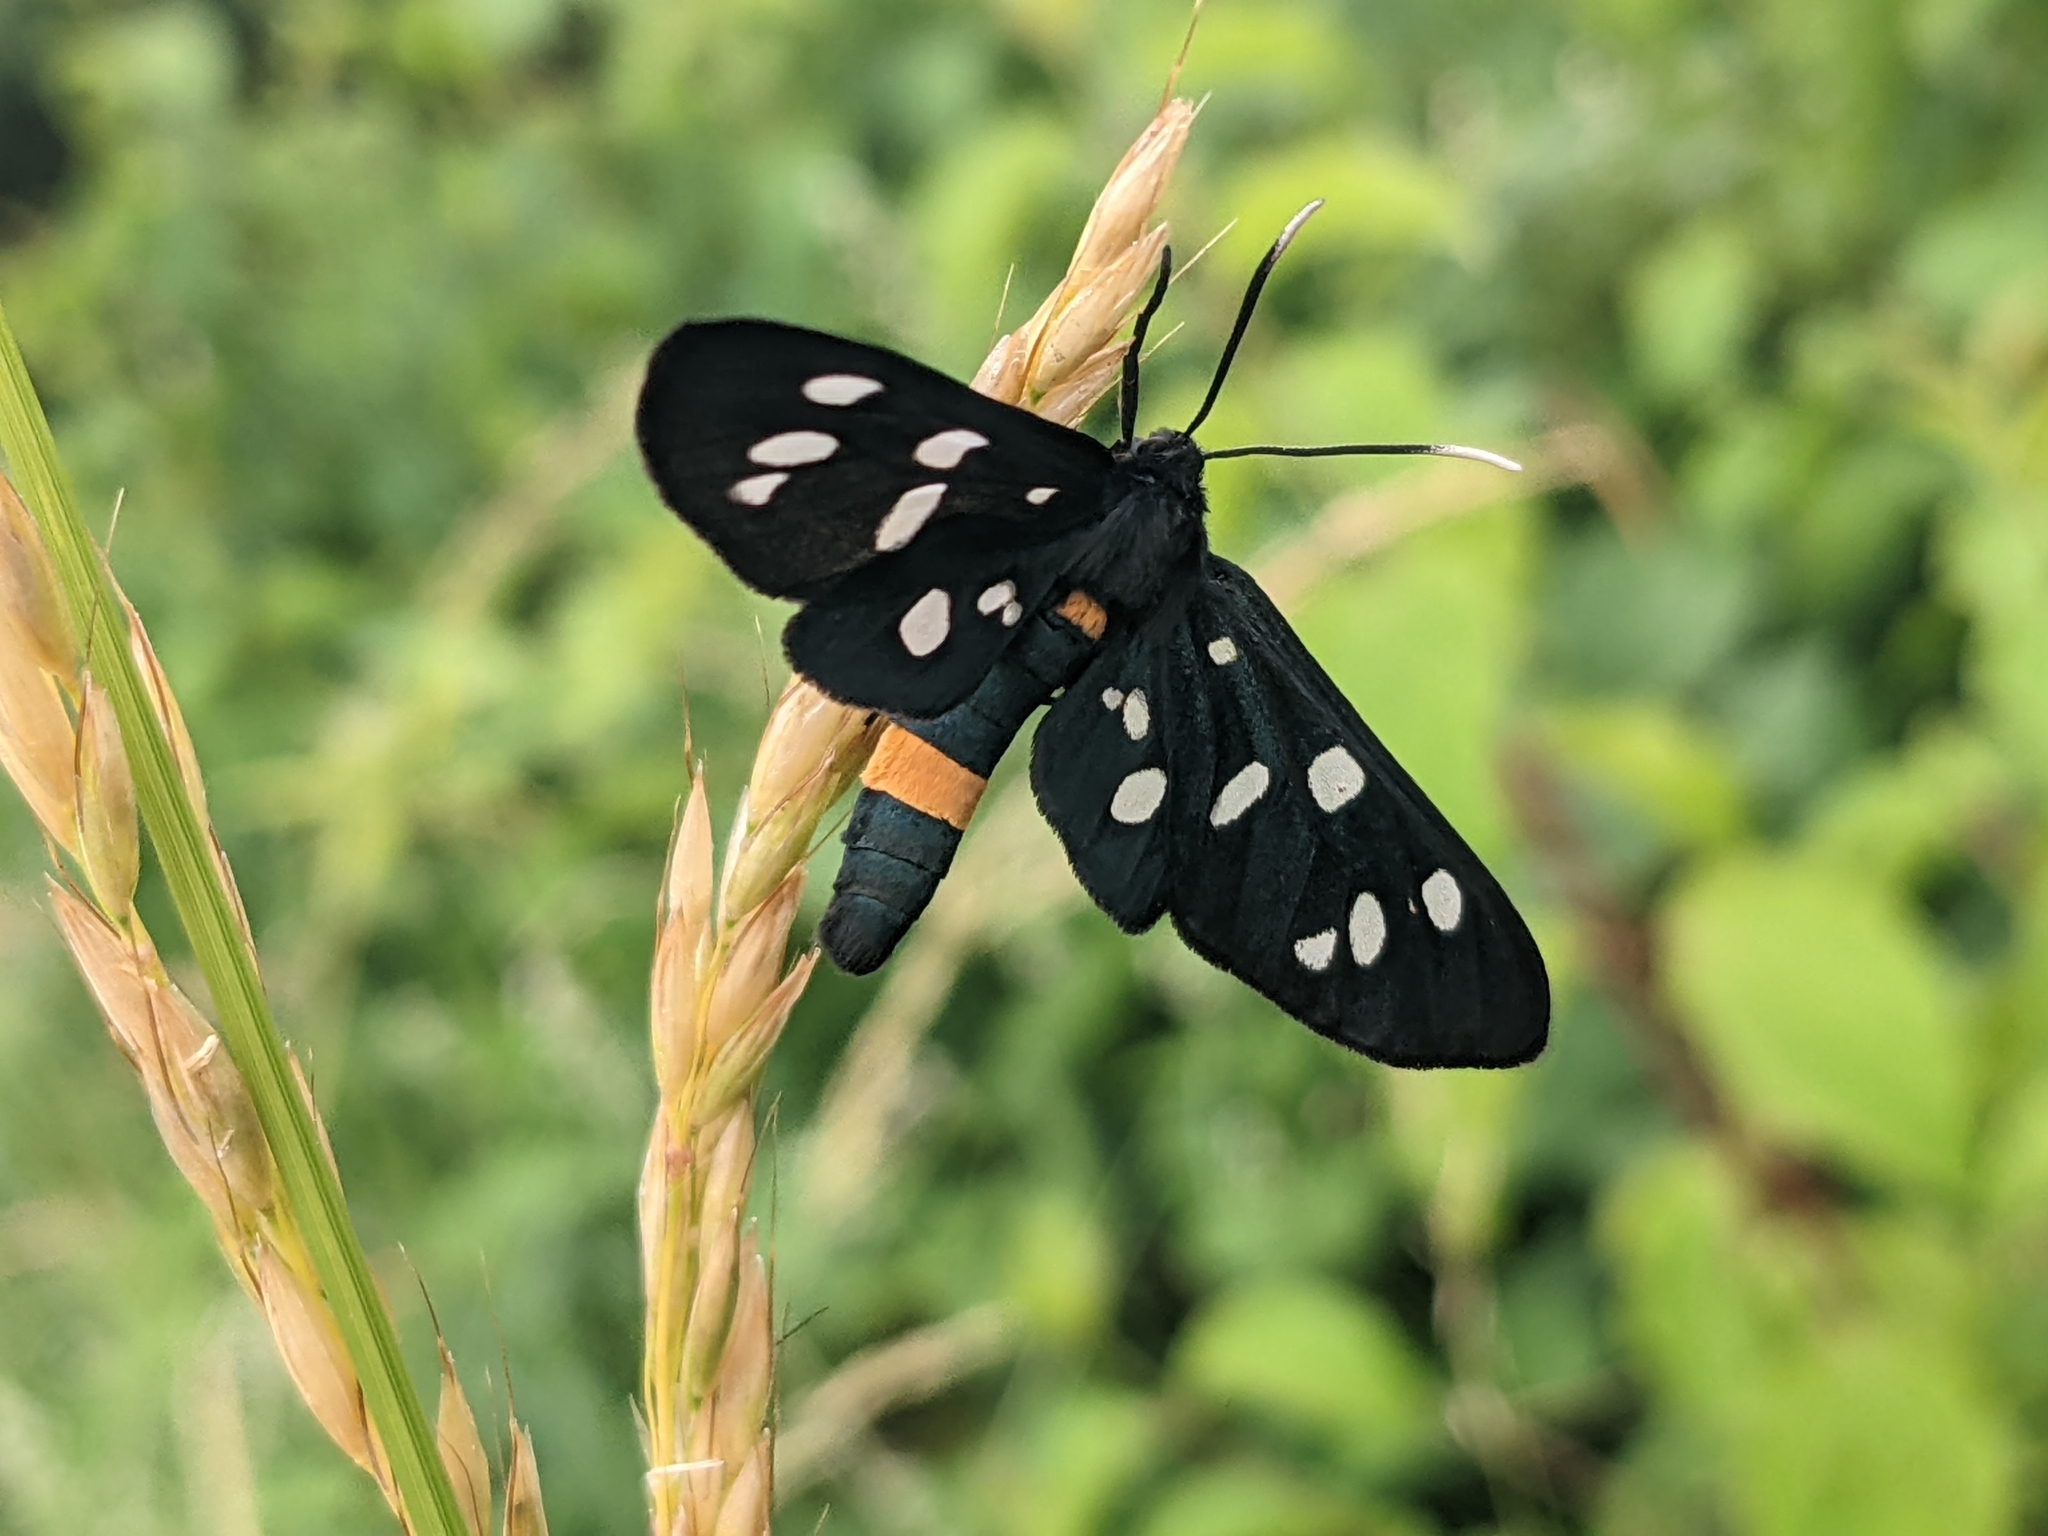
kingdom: Animalia
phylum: Arthropoda
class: Insecta
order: Lepidoptera
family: Erebidae
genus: Amata
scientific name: Amata phegea
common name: Nine-spotted
